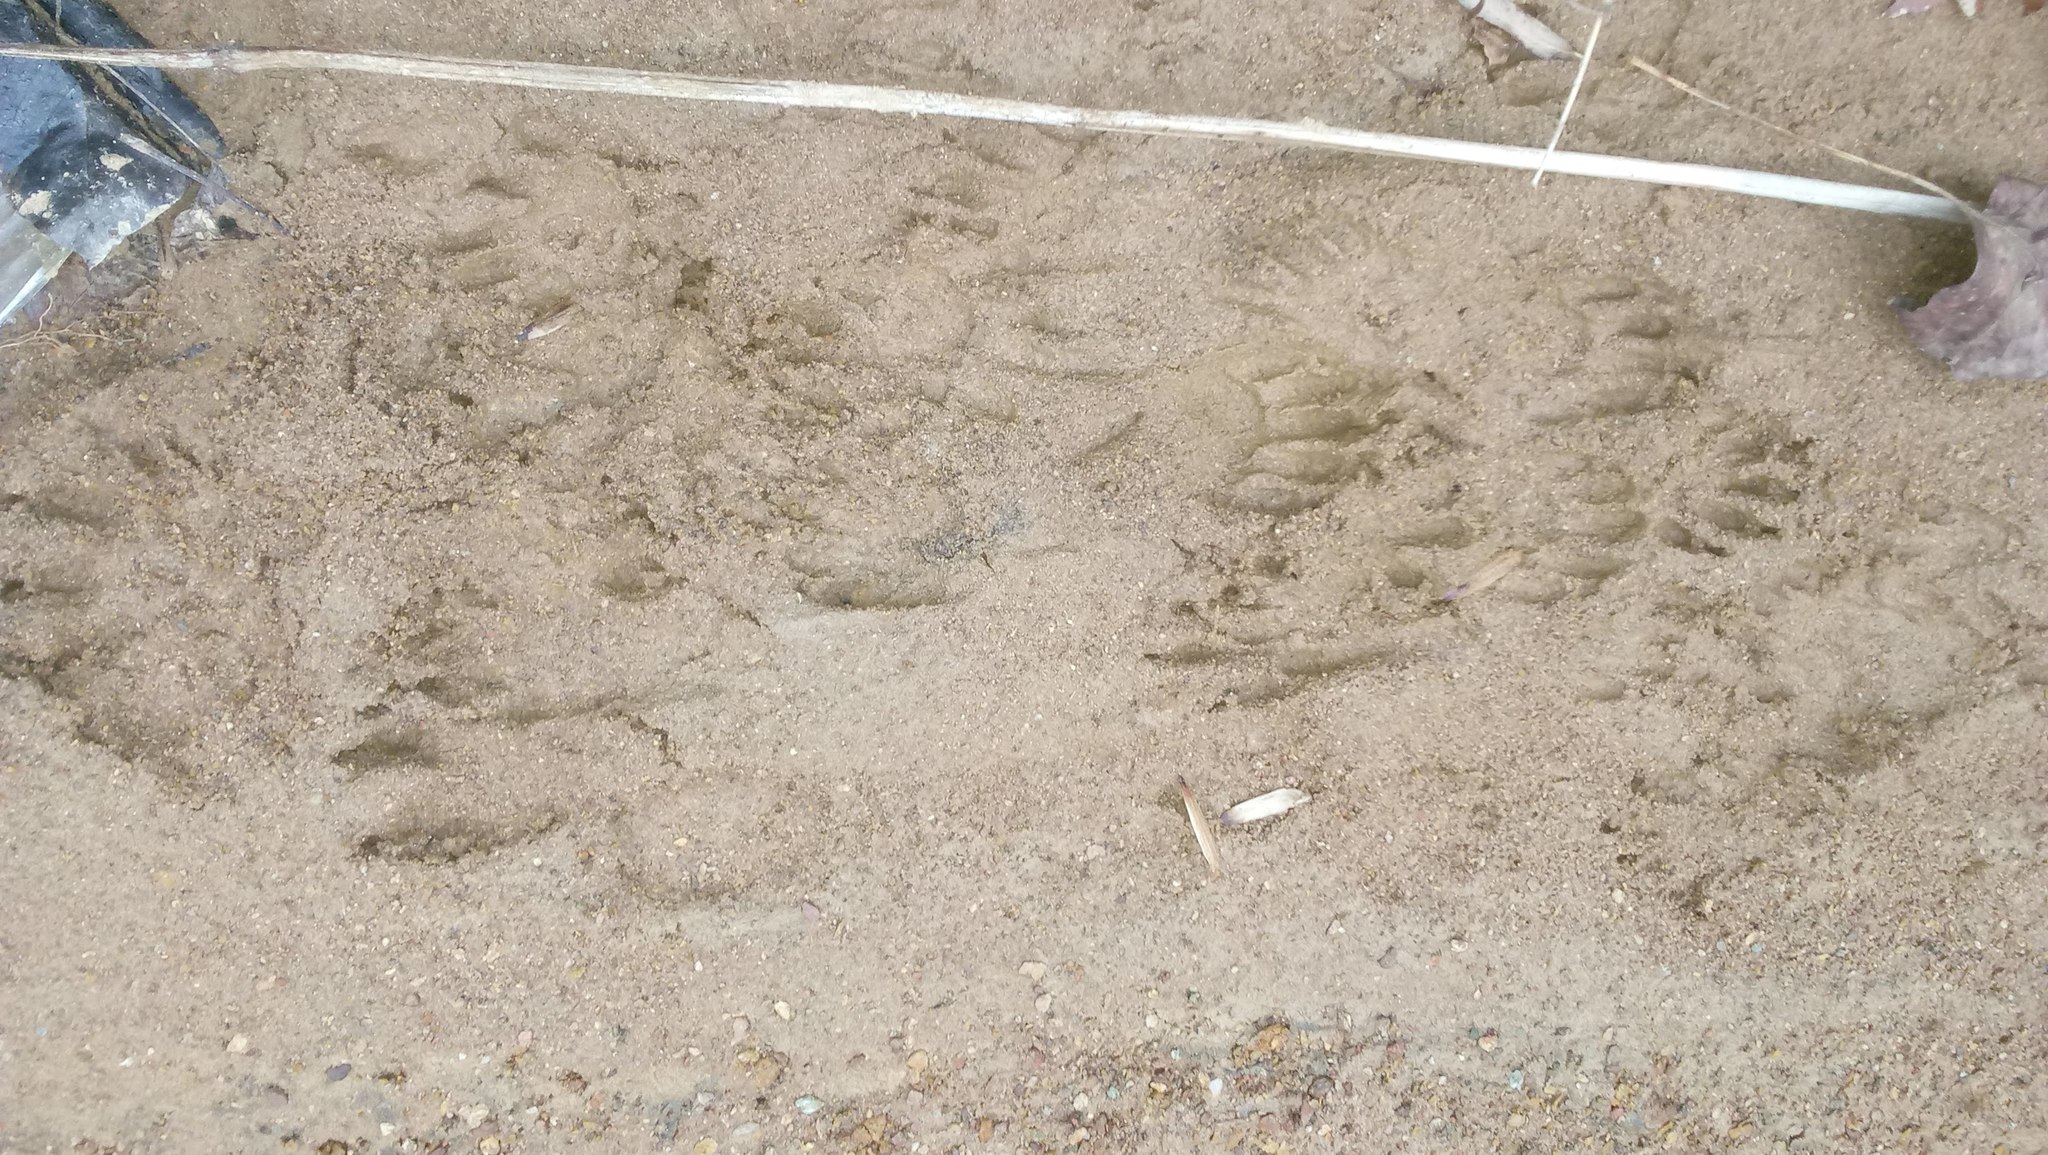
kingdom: Animalia
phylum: Chordata
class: Mammalia
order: Carnivora
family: Procyonidae
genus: Procyon
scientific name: Procyon lotor
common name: Raccoon
